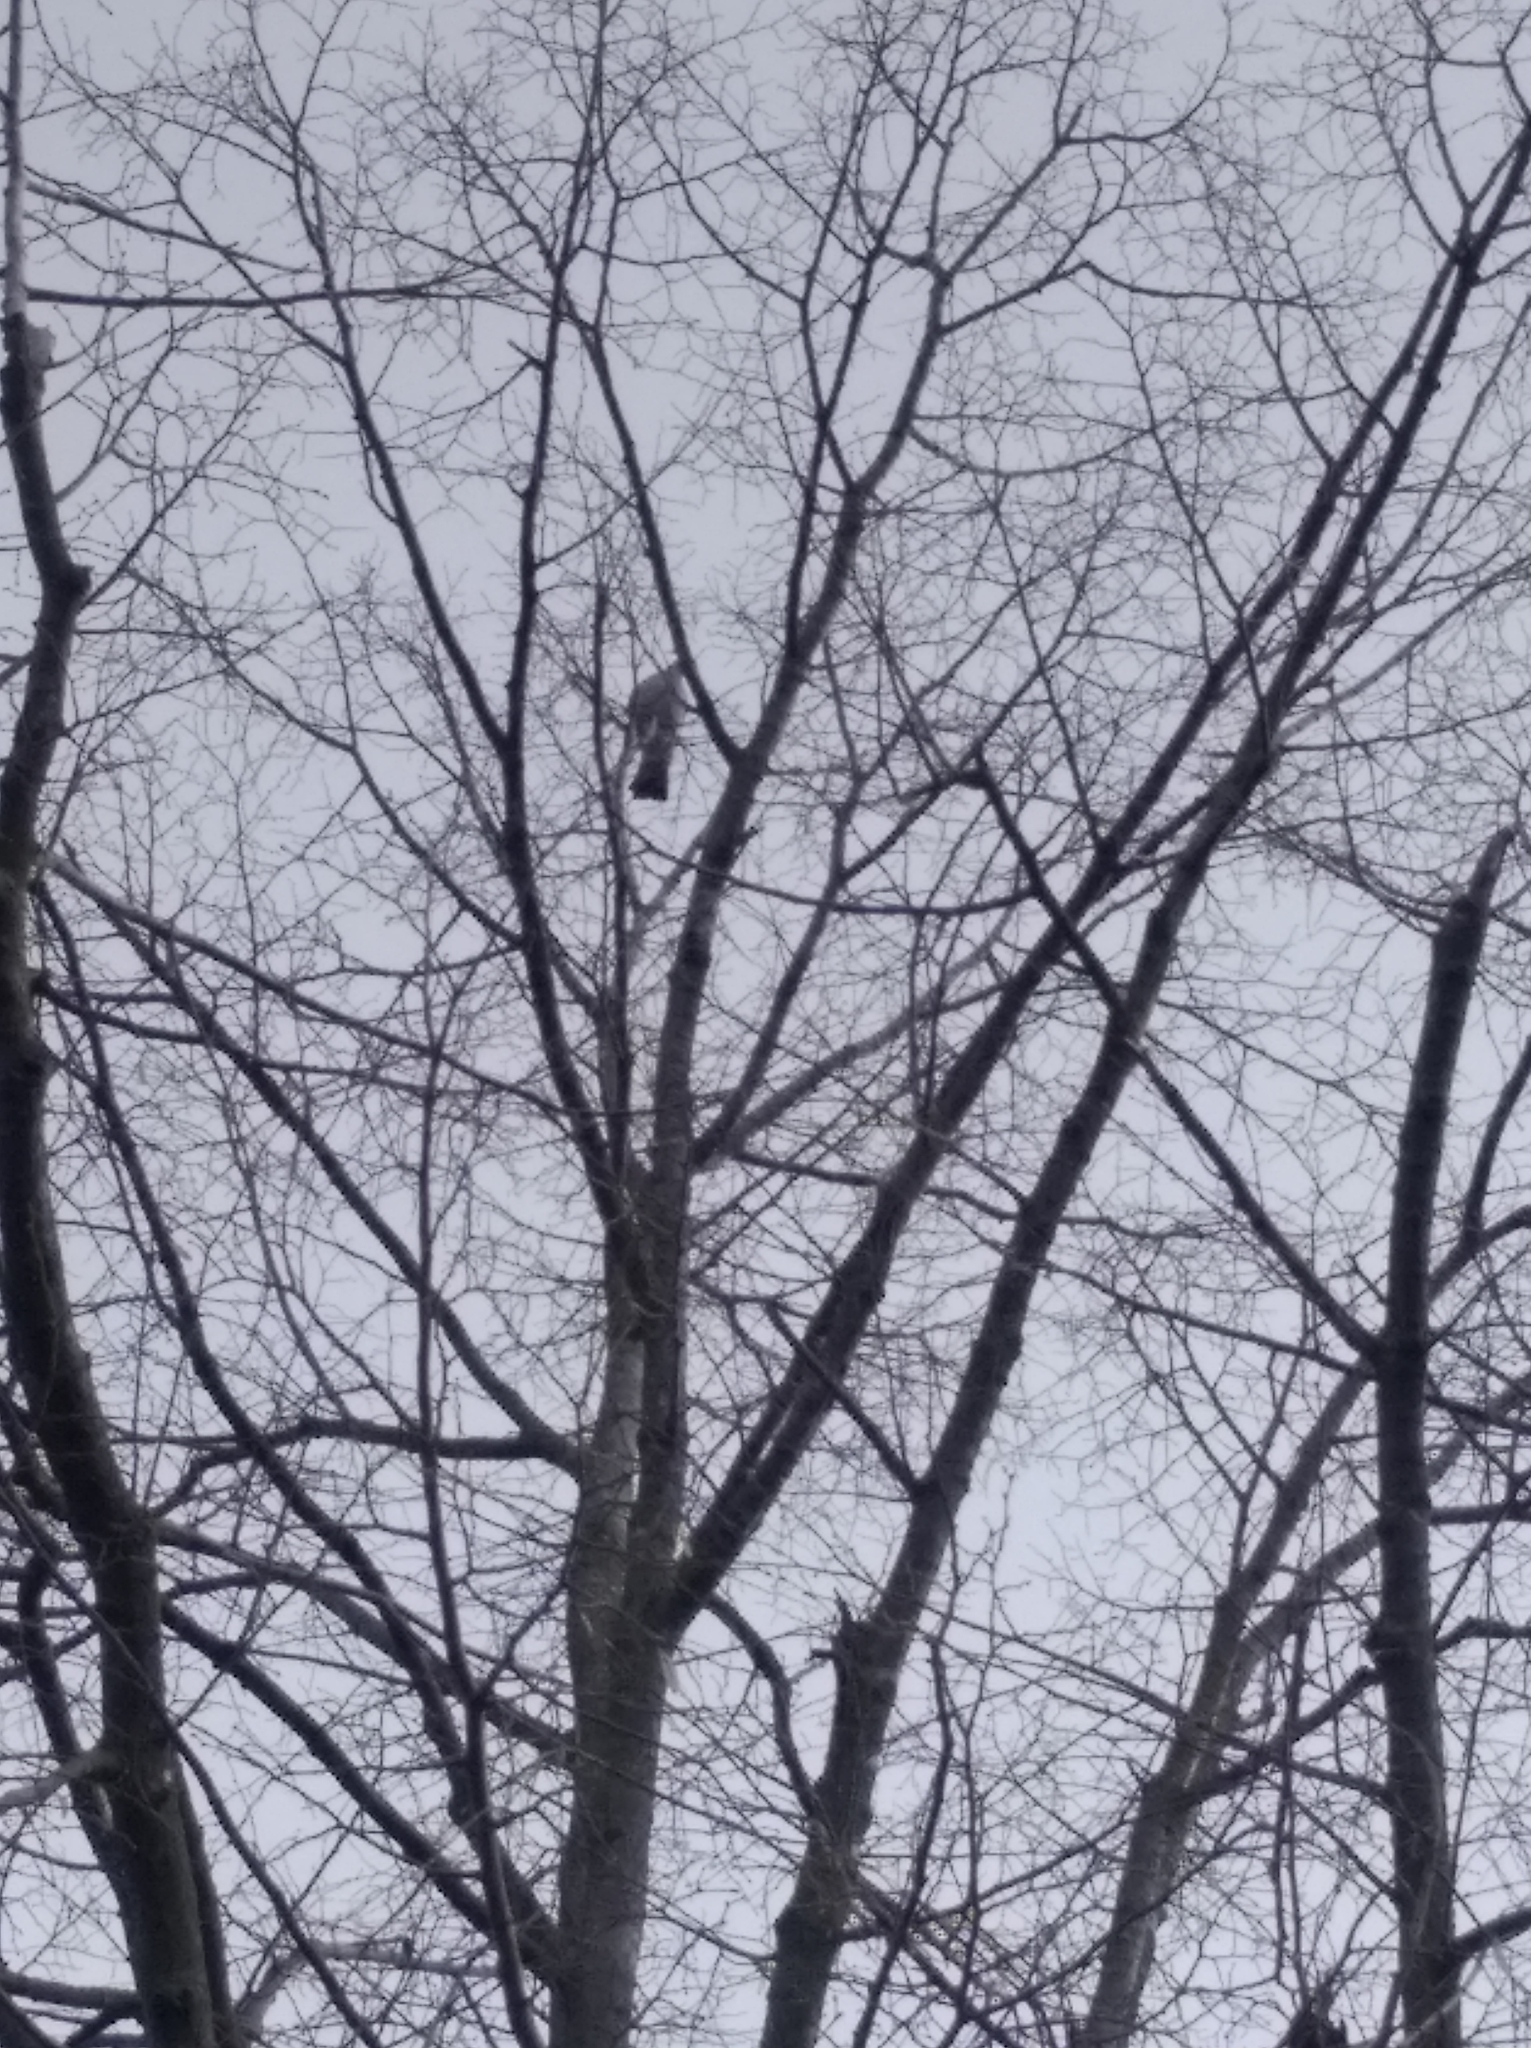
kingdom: Animalia
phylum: Chordata
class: Aves
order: Columbiformes
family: Columbidae
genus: Columba
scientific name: Columba palumbus
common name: Common wood pigeon
